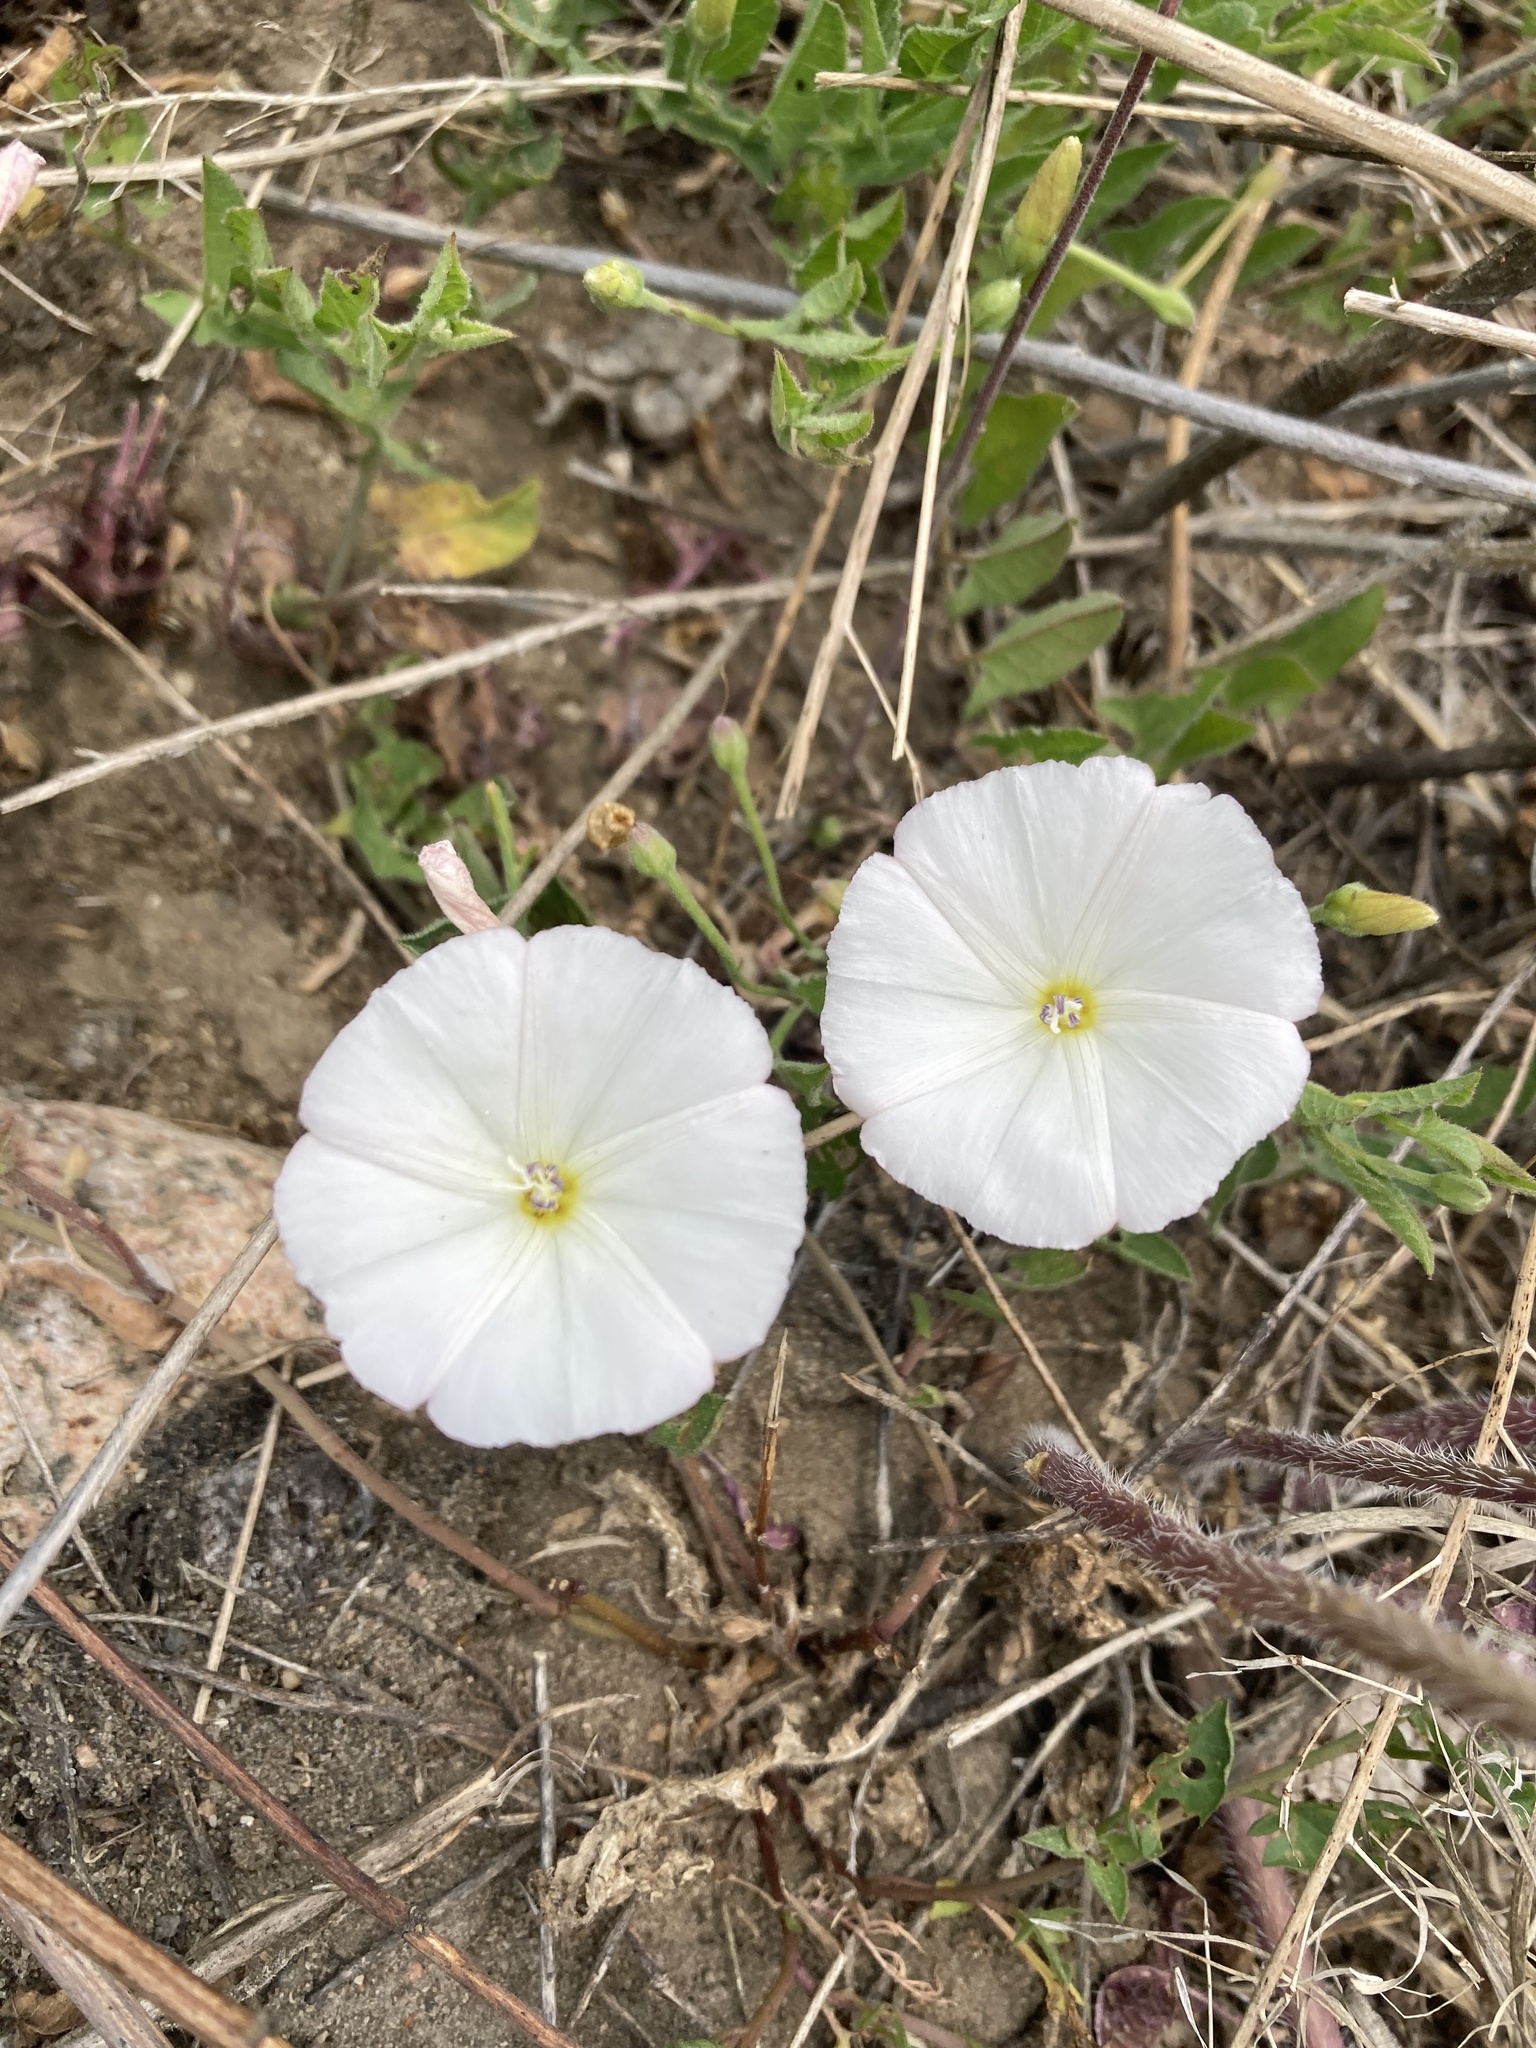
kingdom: Plantae
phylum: Tracheophyta
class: Magnoliopsida
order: Solanales
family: Convolvulaceae
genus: Convolvulus
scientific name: Convolvulus arvensis
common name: Field bindweed
